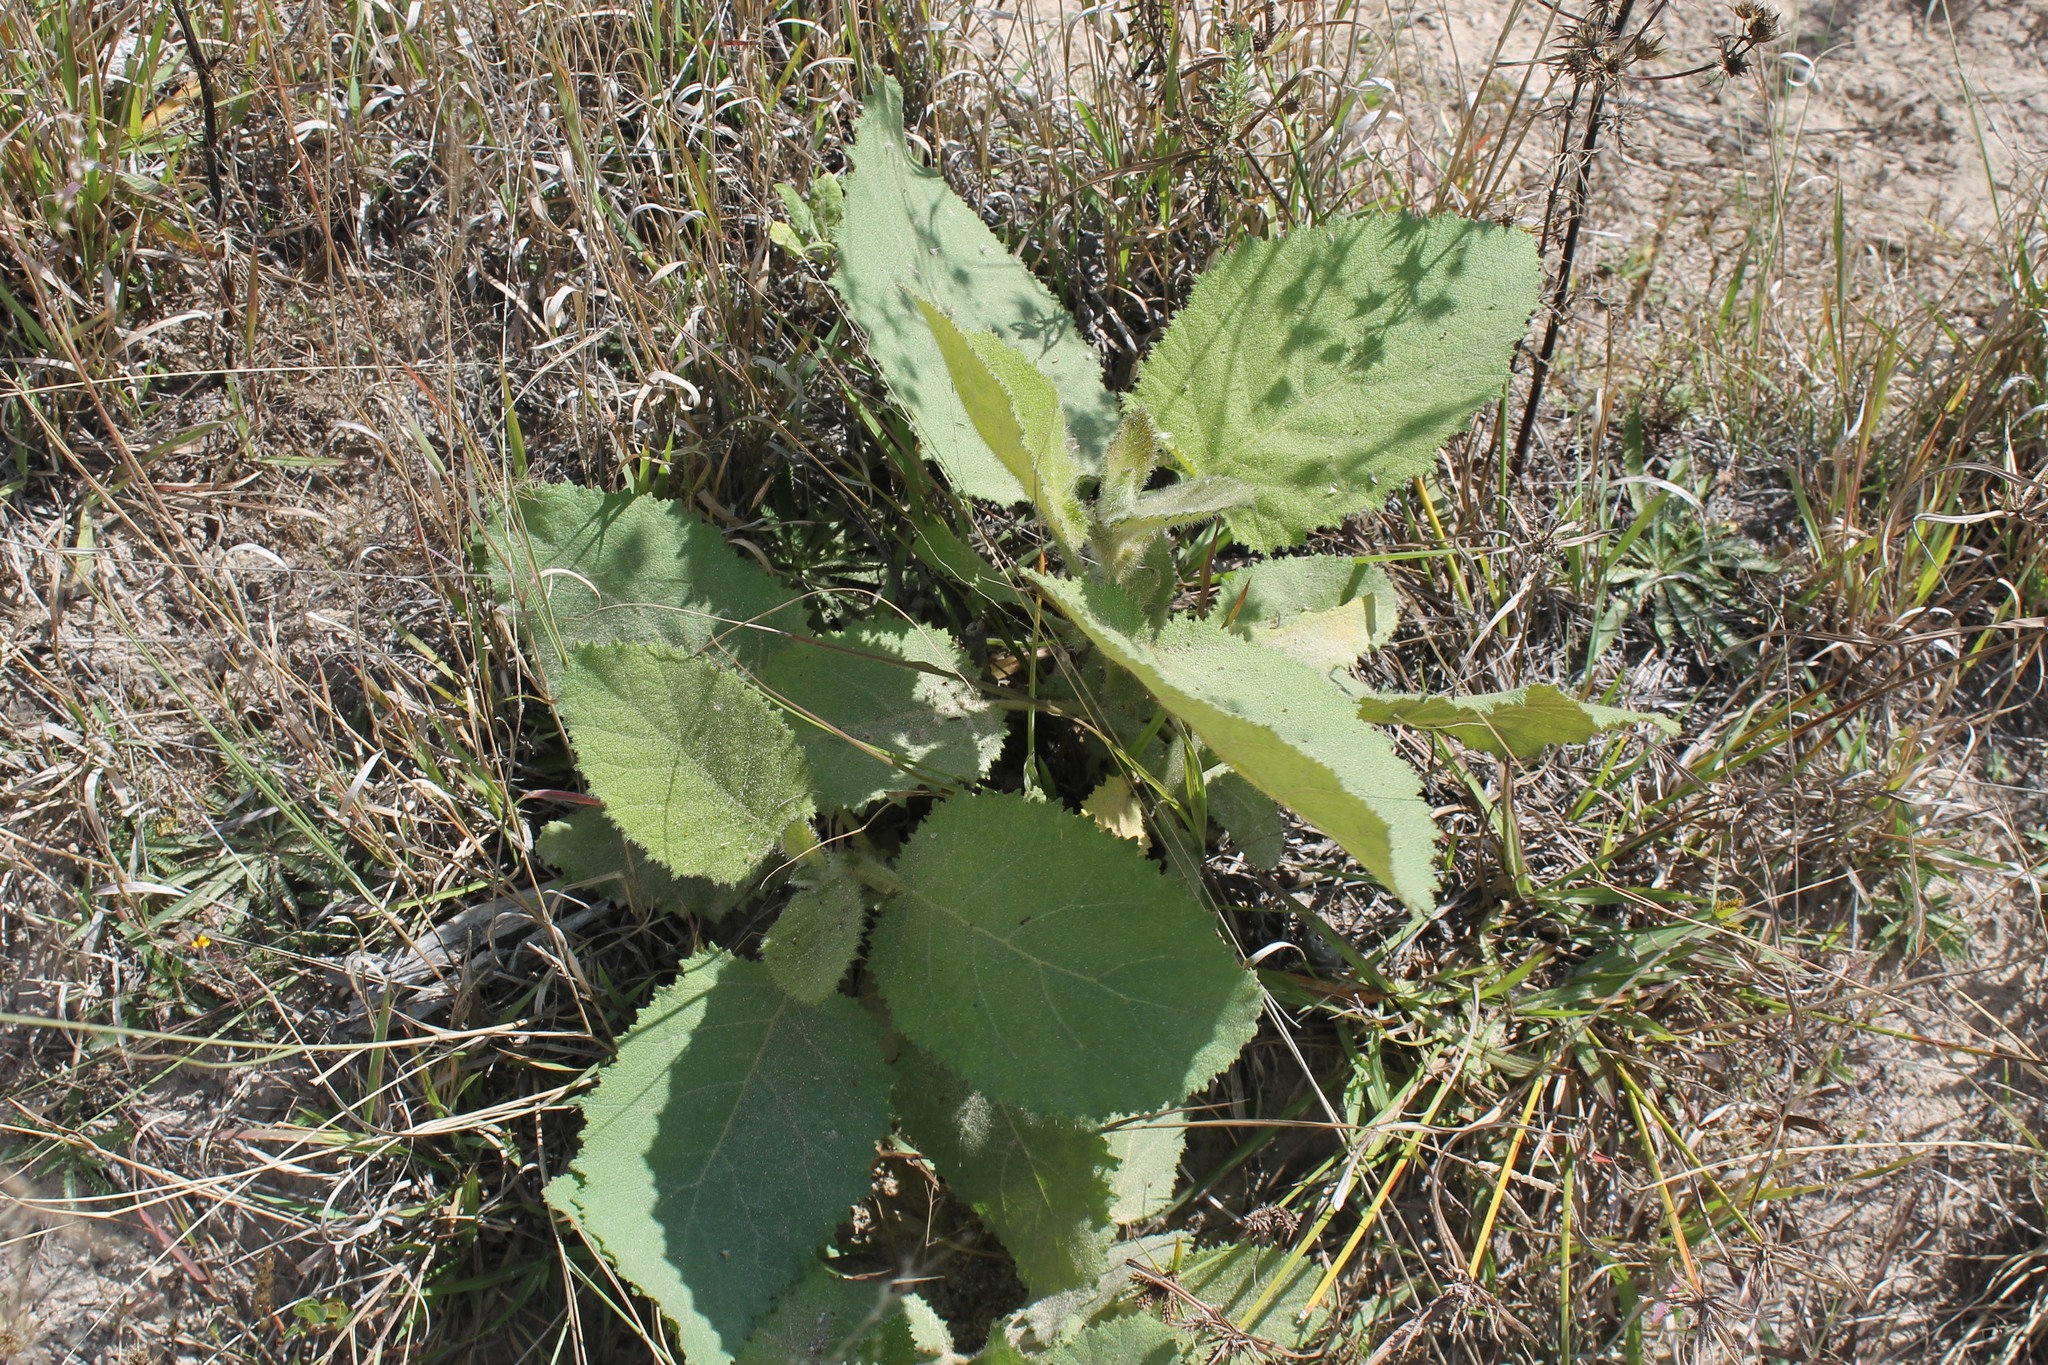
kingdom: Plantae
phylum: Tracheophyta
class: Magnoliopsida
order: Boraginales
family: Namaceae
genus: Wigandia
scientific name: Wigandia urens
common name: Caracus wigandia
